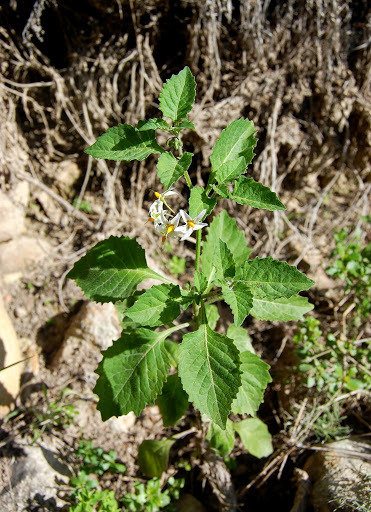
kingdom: Plantae
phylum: Tracheophyta
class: Magnoliopsida
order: Solanales
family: Solanaceae
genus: Solanum
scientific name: Solanum douglasii
